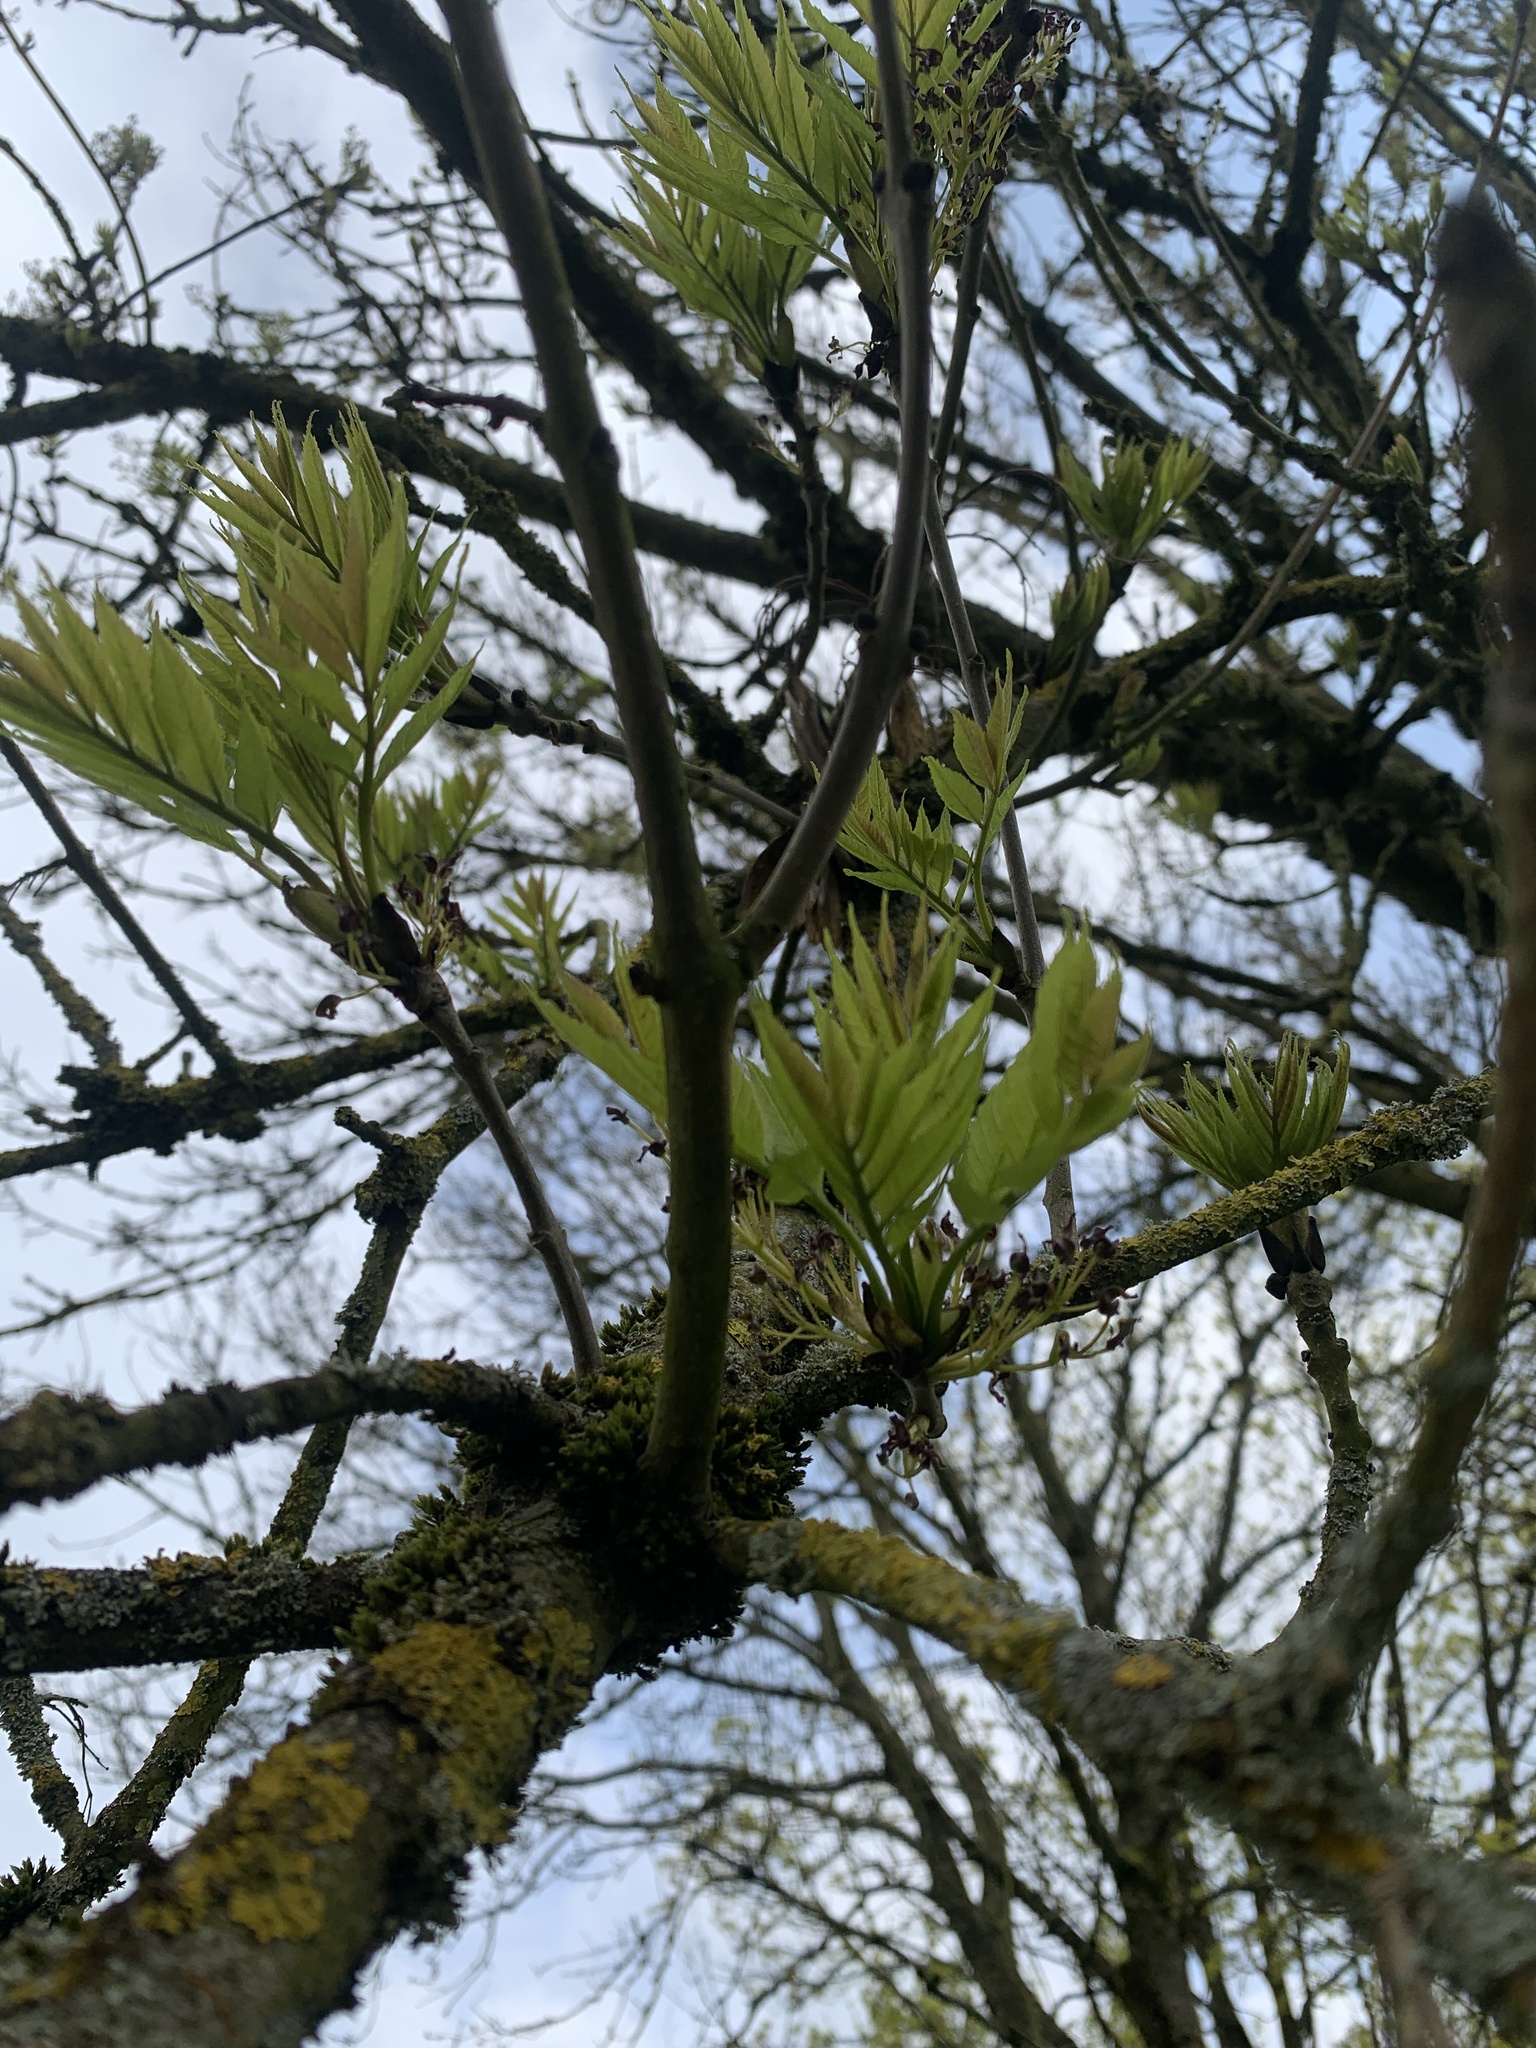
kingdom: Plantae
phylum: Tracheophyta
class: Magnoliopsida
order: Lamiales
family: Oleaceae
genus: Fraxinus
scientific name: Fraxinus excelsior
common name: European ash
